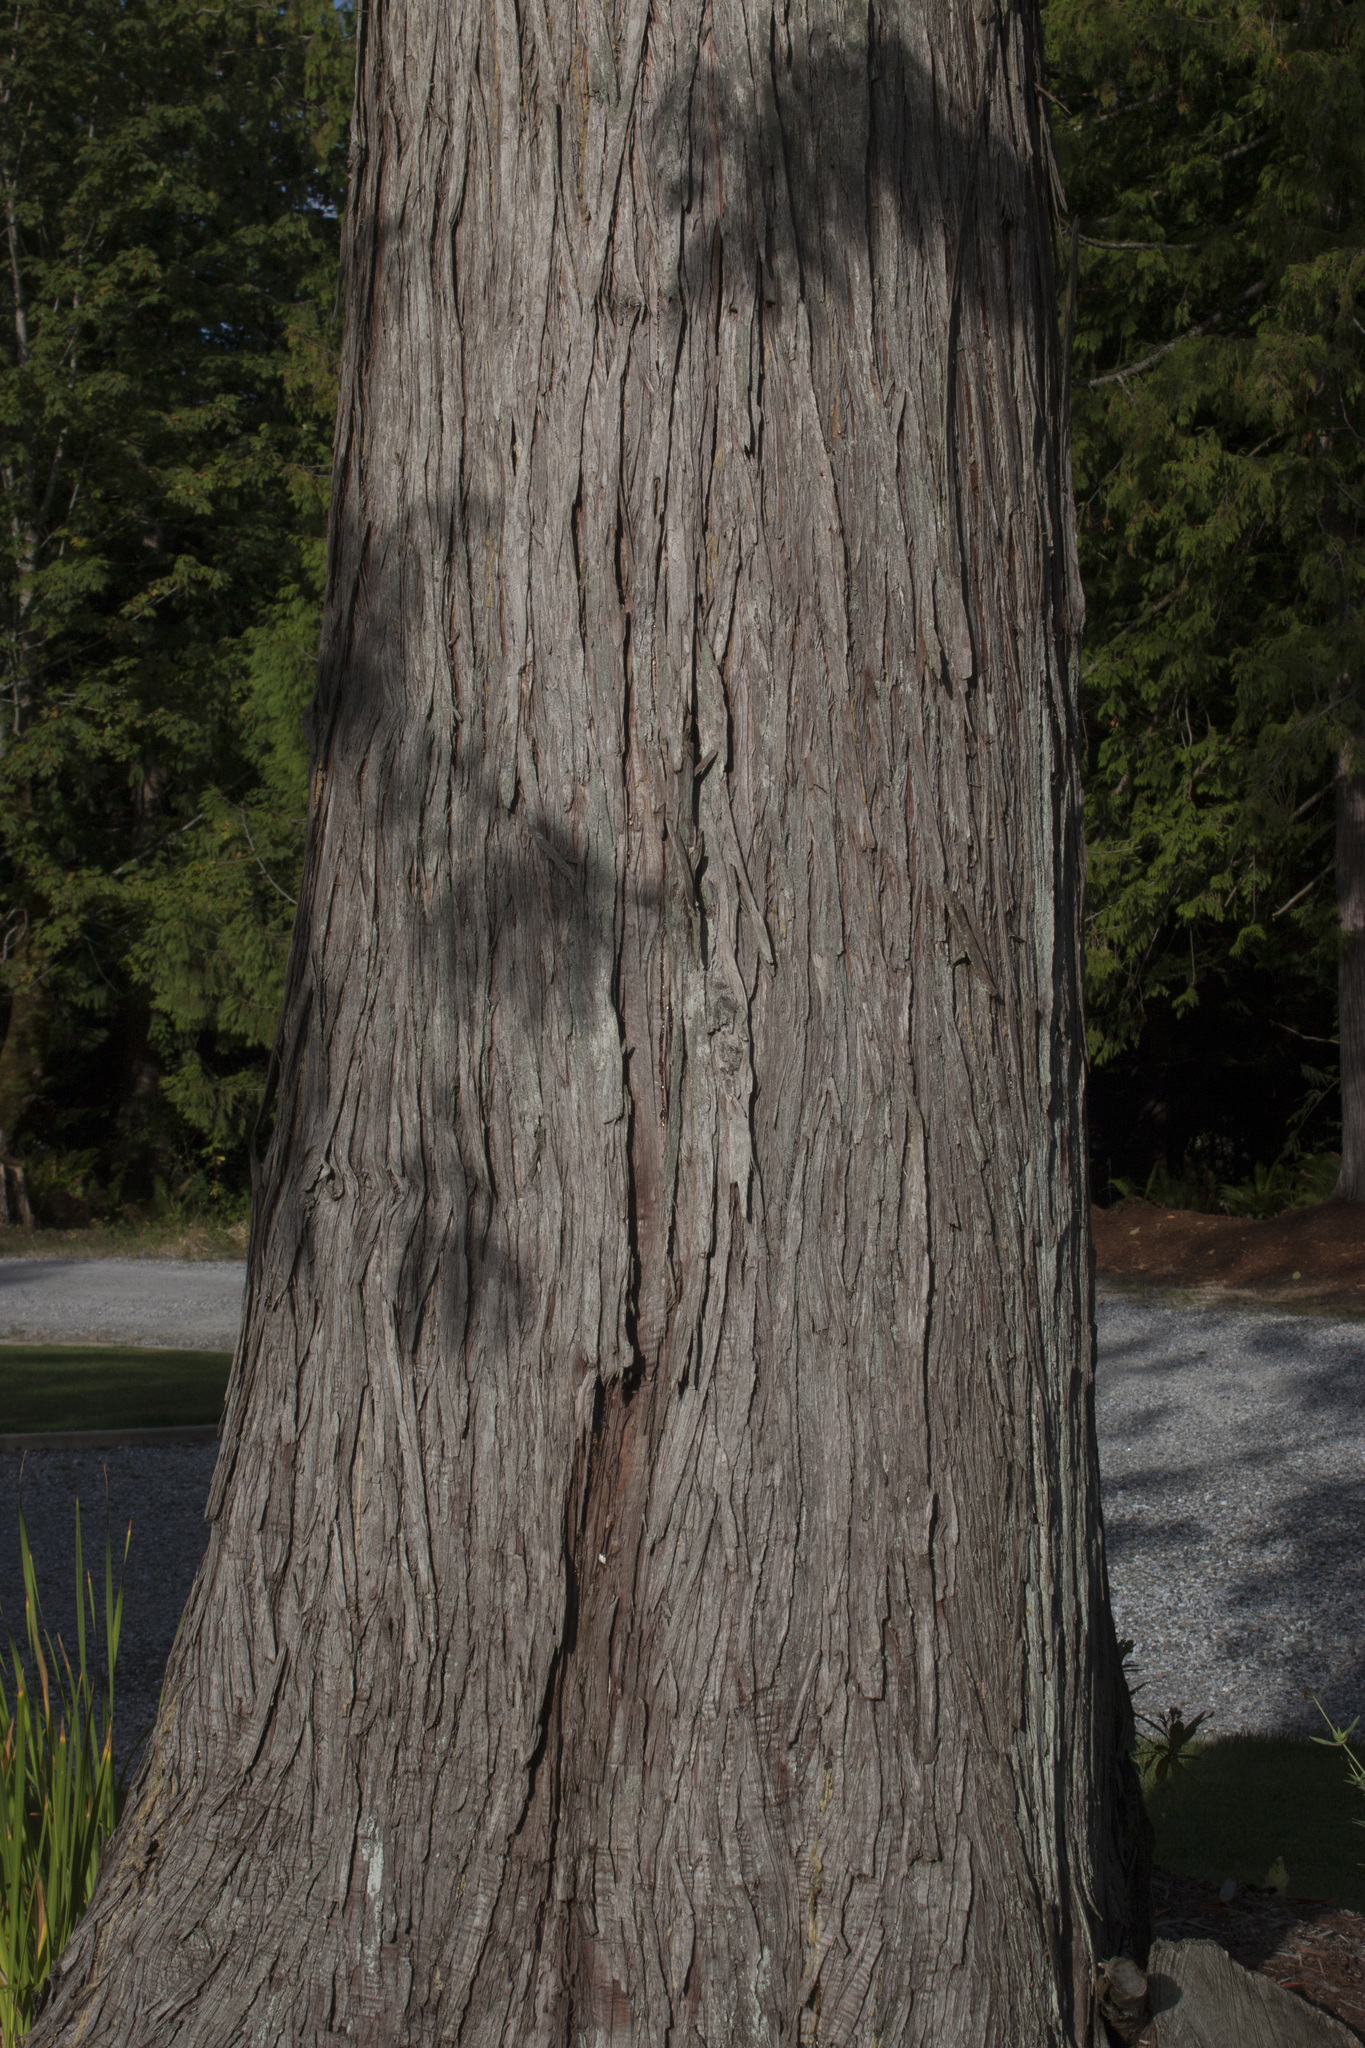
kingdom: Plantae
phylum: Tracheophyta
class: Pinopsida
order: Pinales
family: Cupressaceae
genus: Thuja
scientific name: Thuja plicata
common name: Western red-cedar
